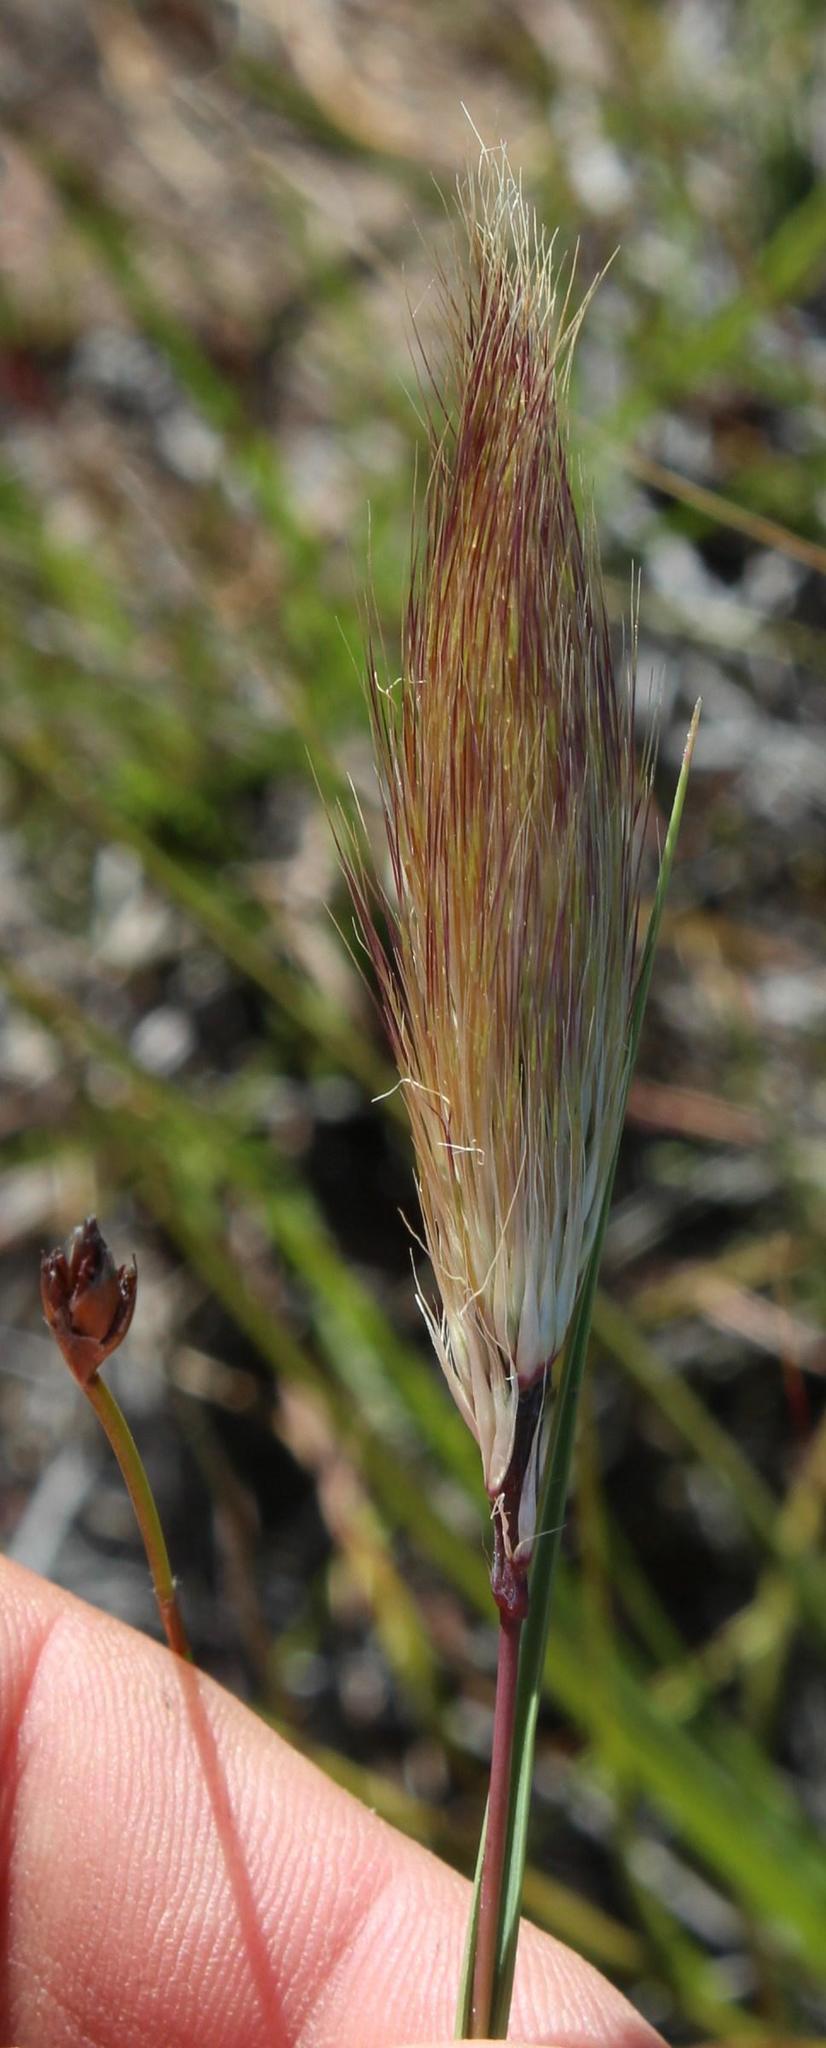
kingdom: Plantae
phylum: Tracheophyta
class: Liliopsida
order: Poales
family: Poaceae
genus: Pentameris
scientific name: Pentameris curvifolia
